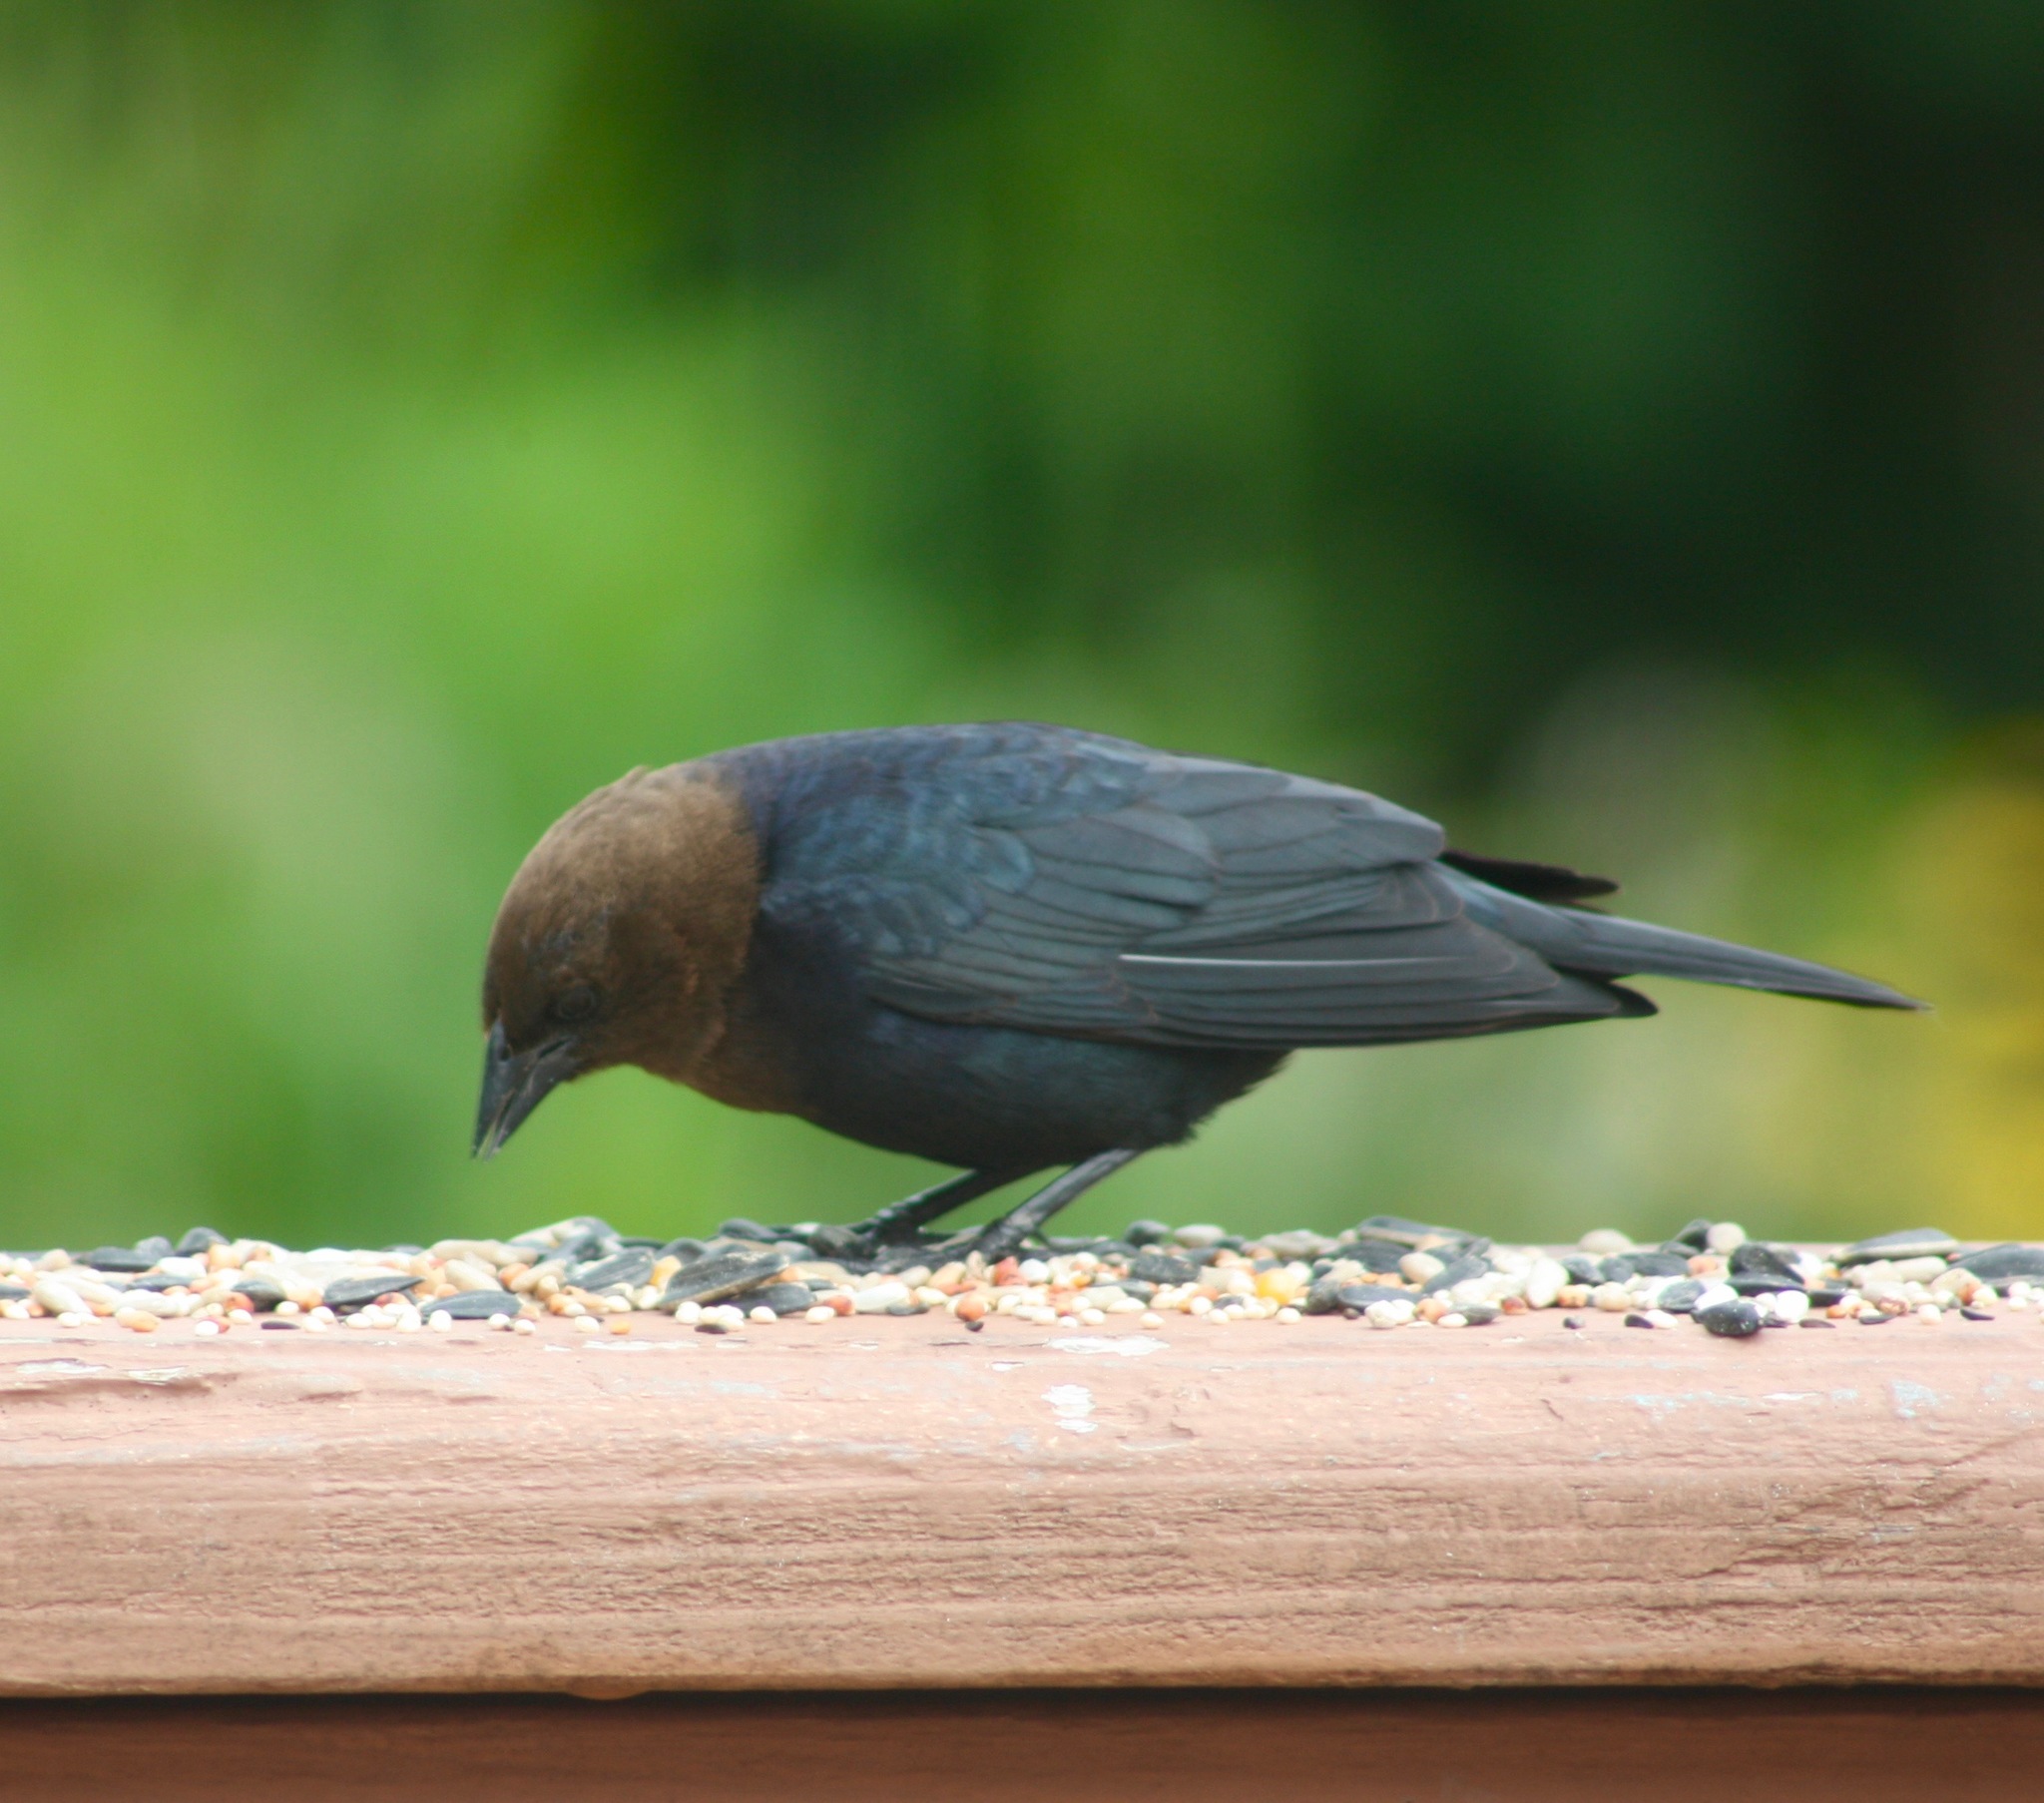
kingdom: Animalia
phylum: Chordata
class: Aves
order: Passeriformes
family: Icteridae
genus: Molothrus
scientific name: Molothrus ater
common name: Brown-headed cowbird
